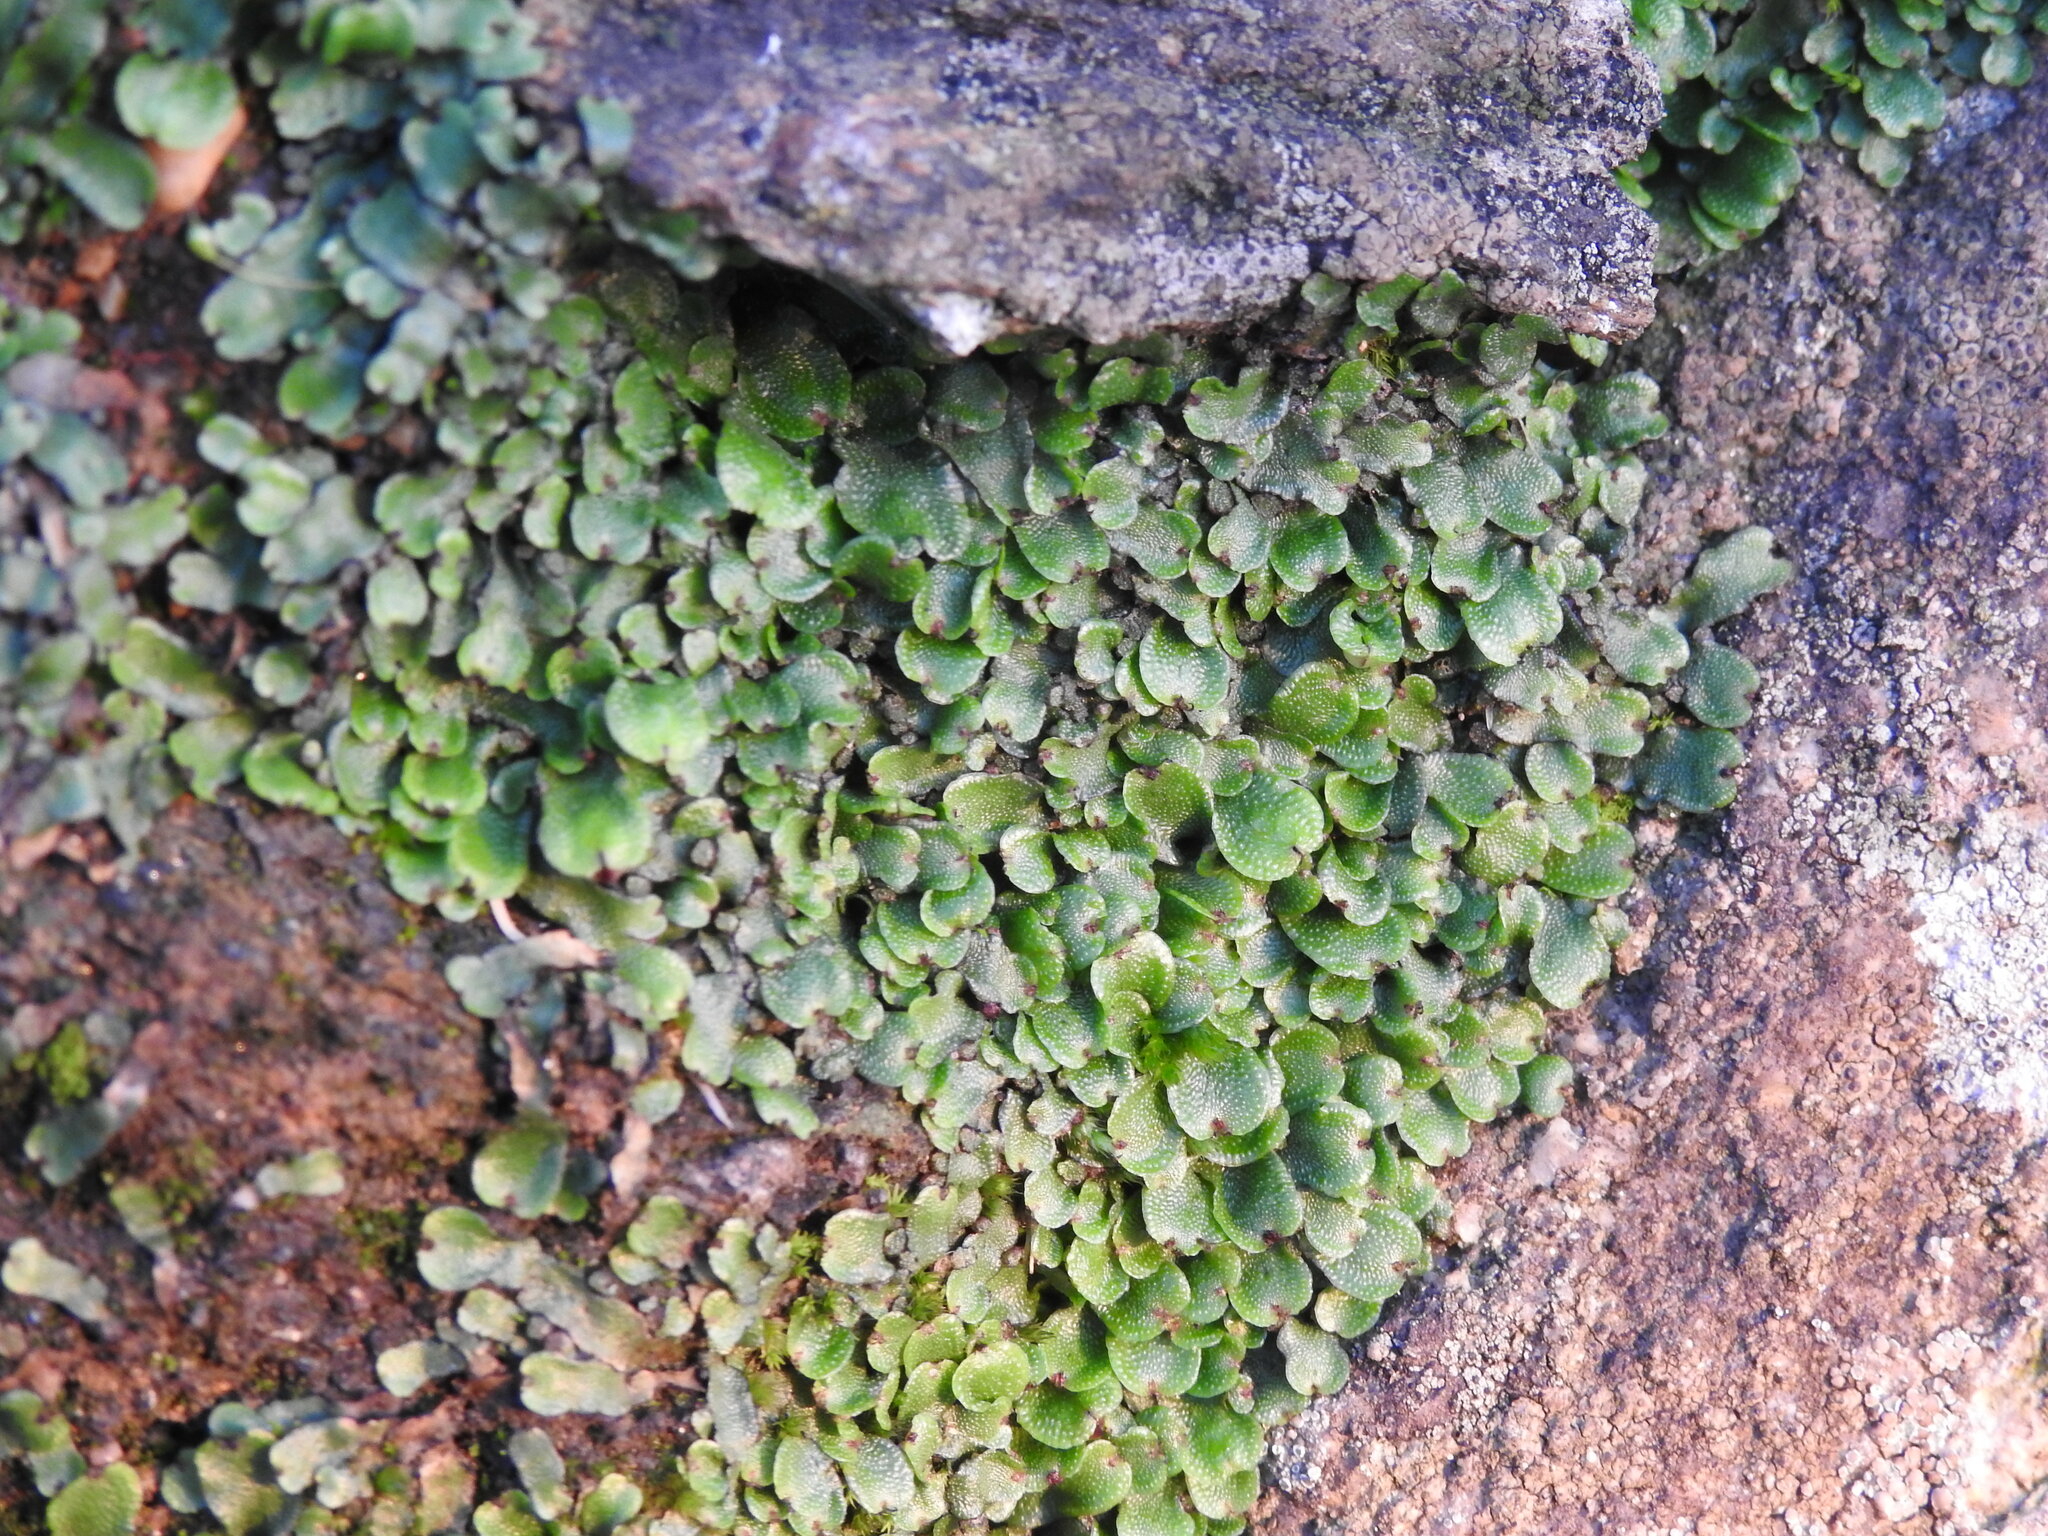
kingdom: Plantae
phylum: Marchantiophyta
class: Marchantiopsida
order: Marchantiales
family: Conocephalaceae
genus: Conocephalum
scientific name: Conocephalum conicum
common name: Great scented liverwort
